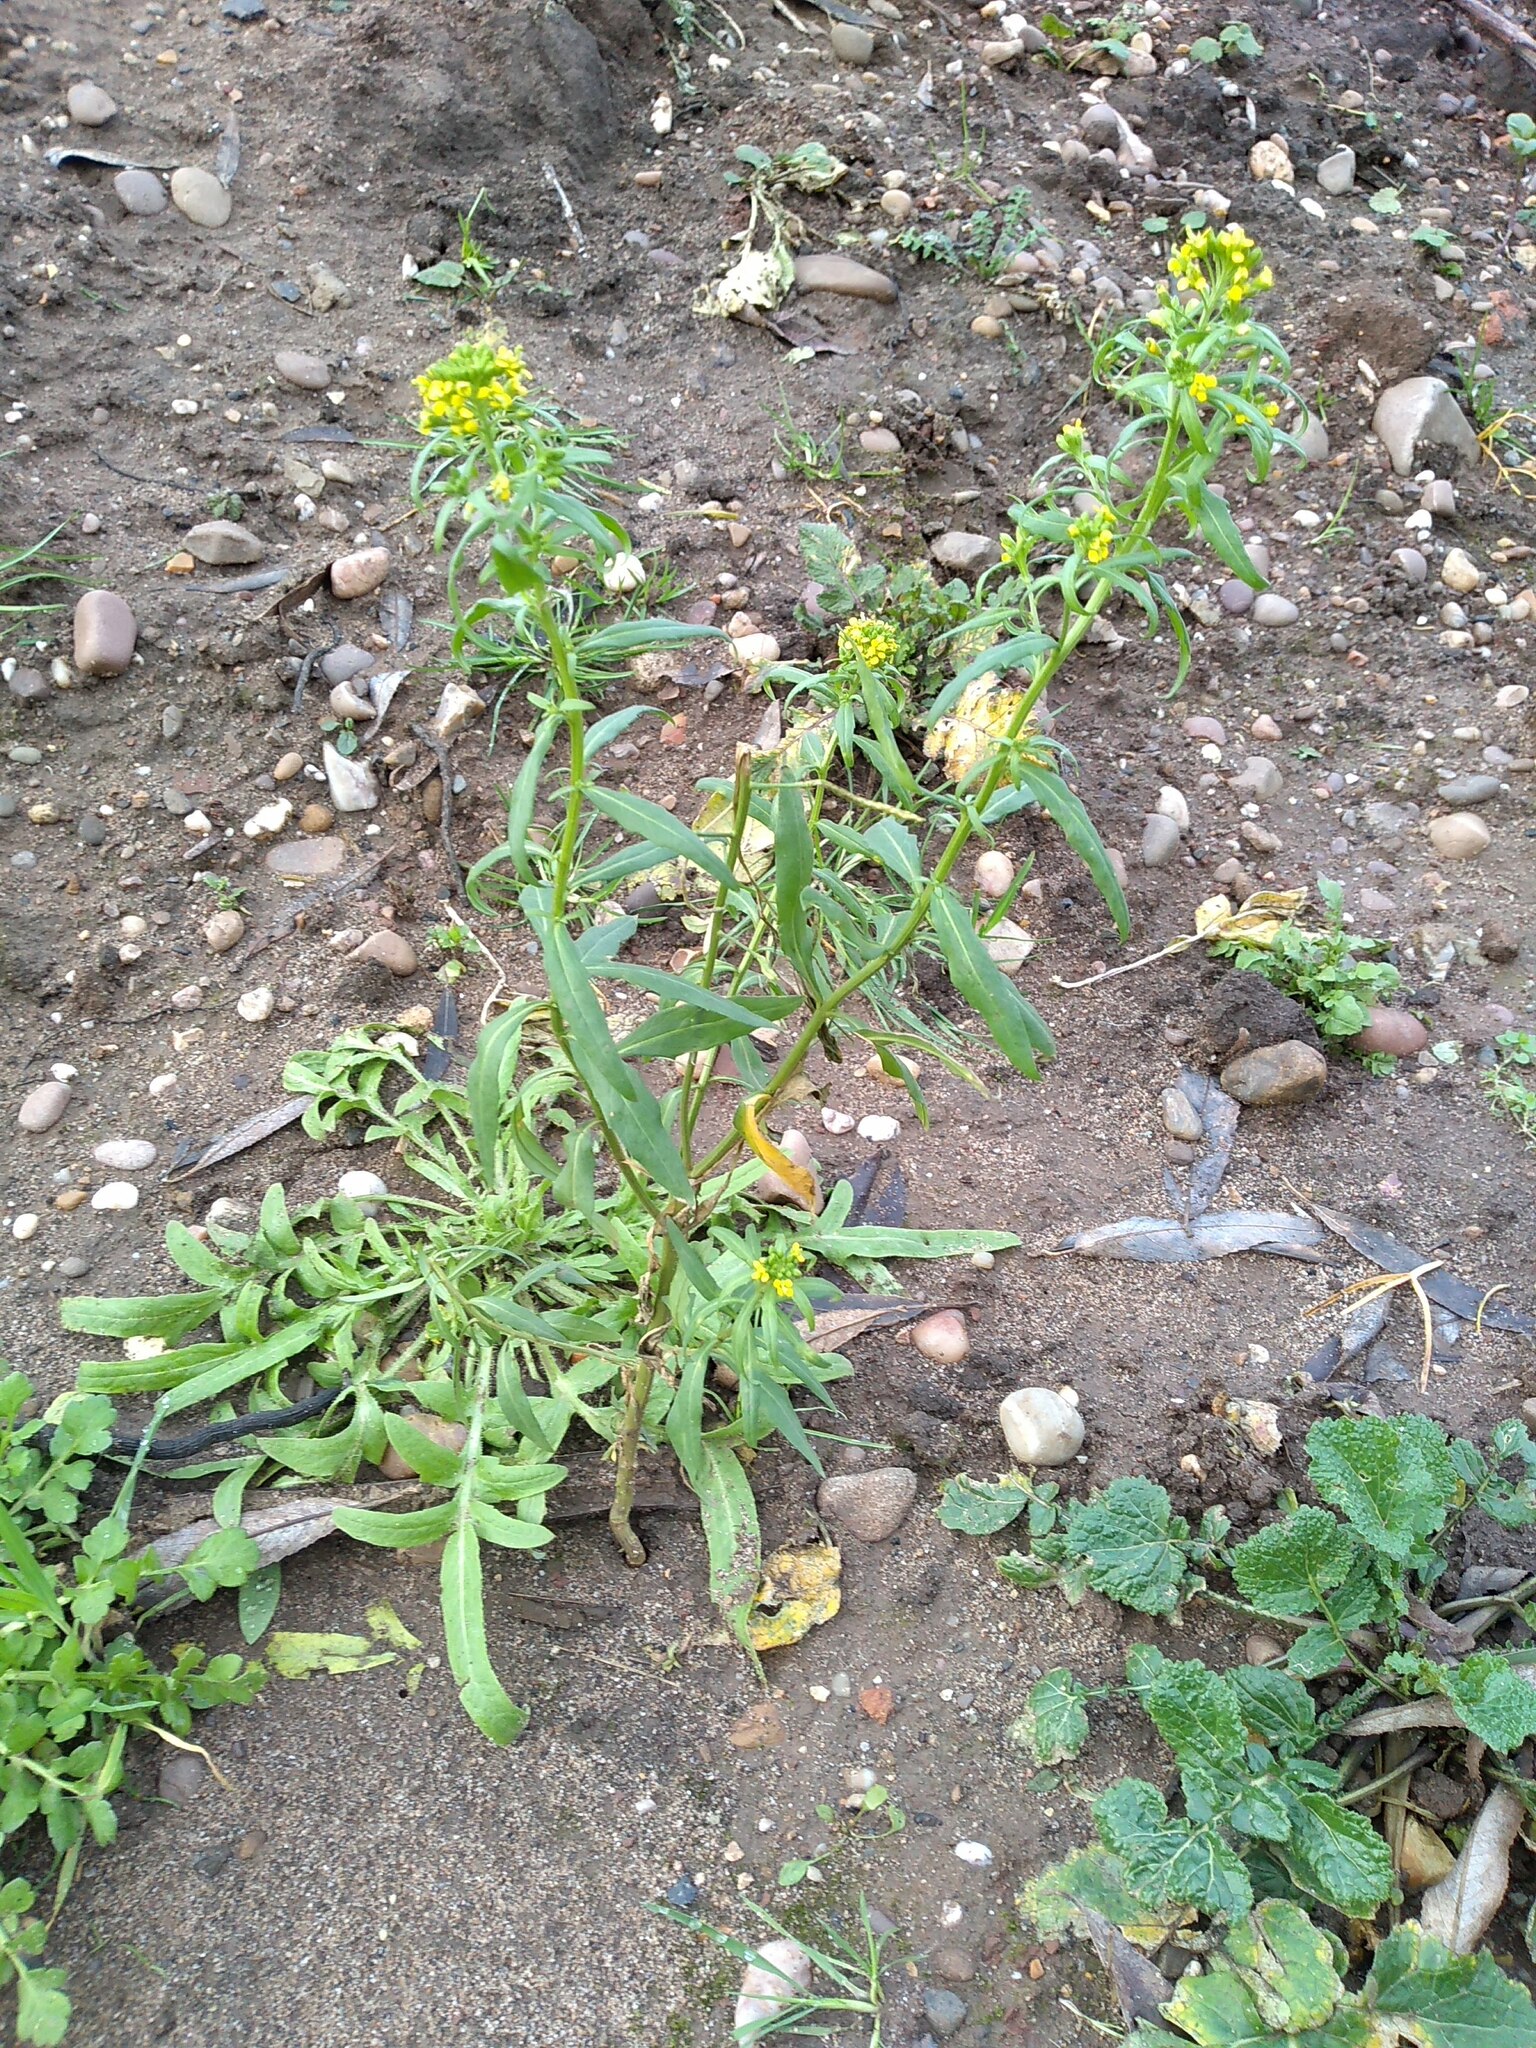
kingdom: Plantae
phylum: Tracheophyta
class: Magnoliopsida
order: Brassicales
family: Brassicaceae
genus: Erysimum
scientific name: Erysimum cheiranthoides
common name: Treacle mustard
